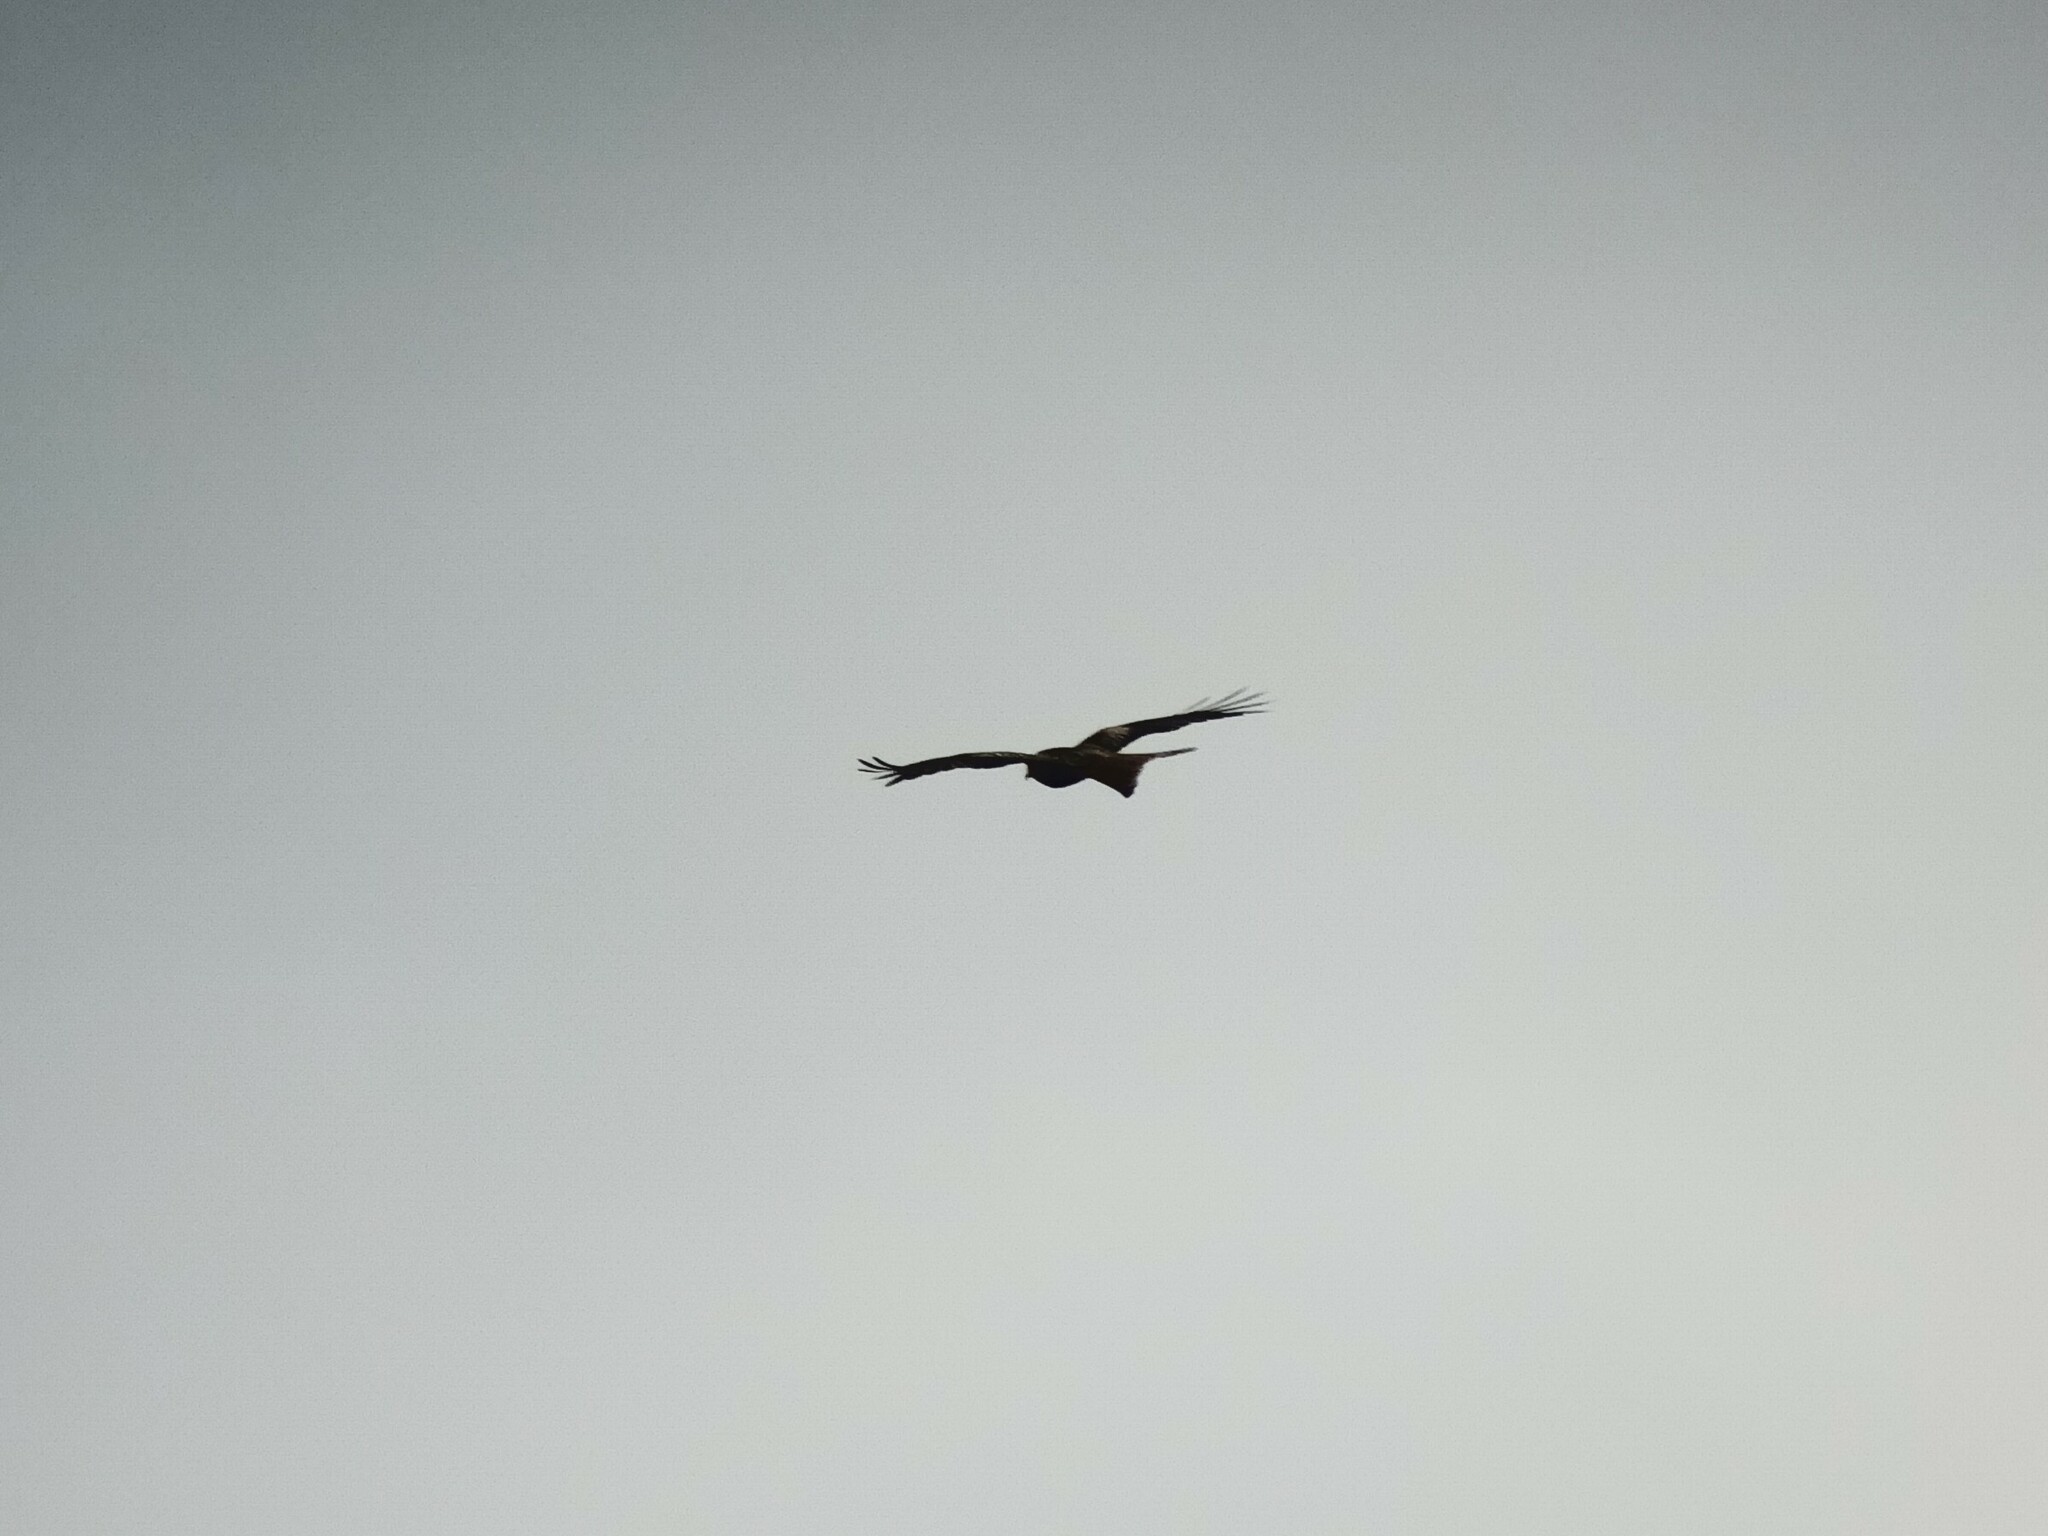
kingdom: Animalia
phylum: Chordata
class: Aves
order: Accipitriformes
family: Accipitridae
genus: Milvus
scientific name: Milvus milvus
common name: Red kite
